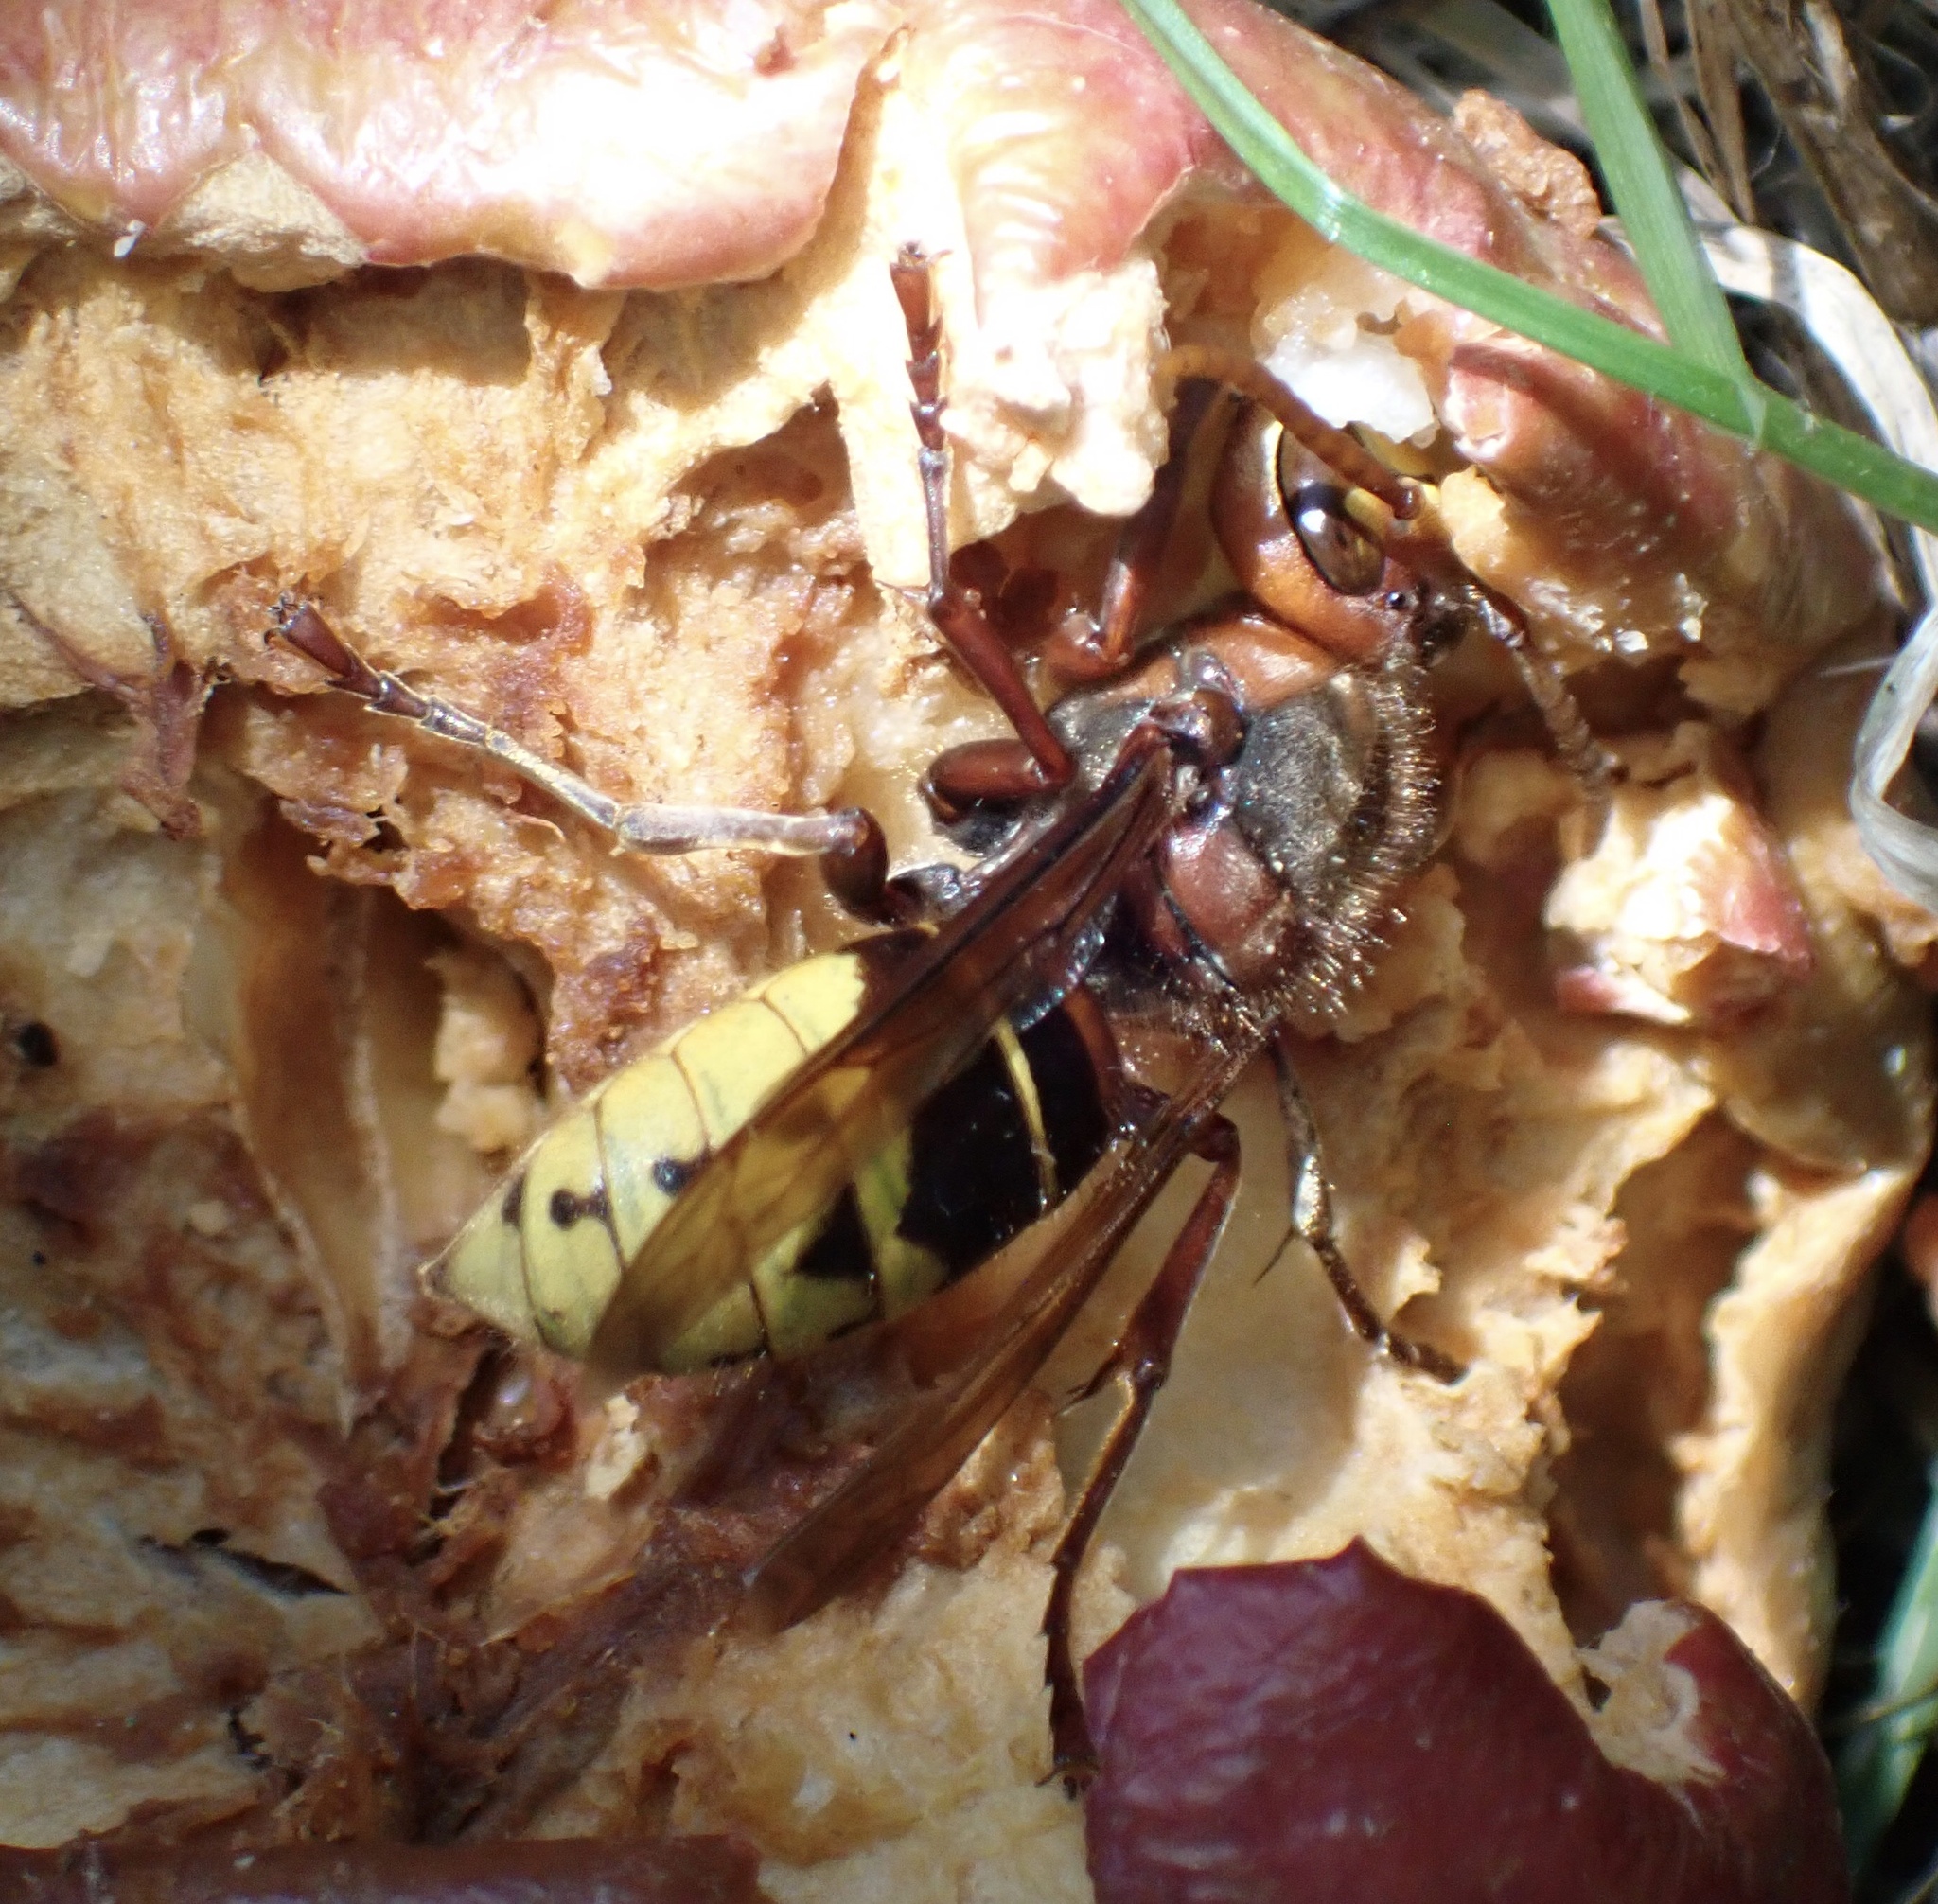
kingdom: Animalia
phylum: Arthropoda
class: Insecta
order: Hymenoptera
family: Vespidae
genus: Vespa
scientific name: Vespa crabro
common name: Hornet
